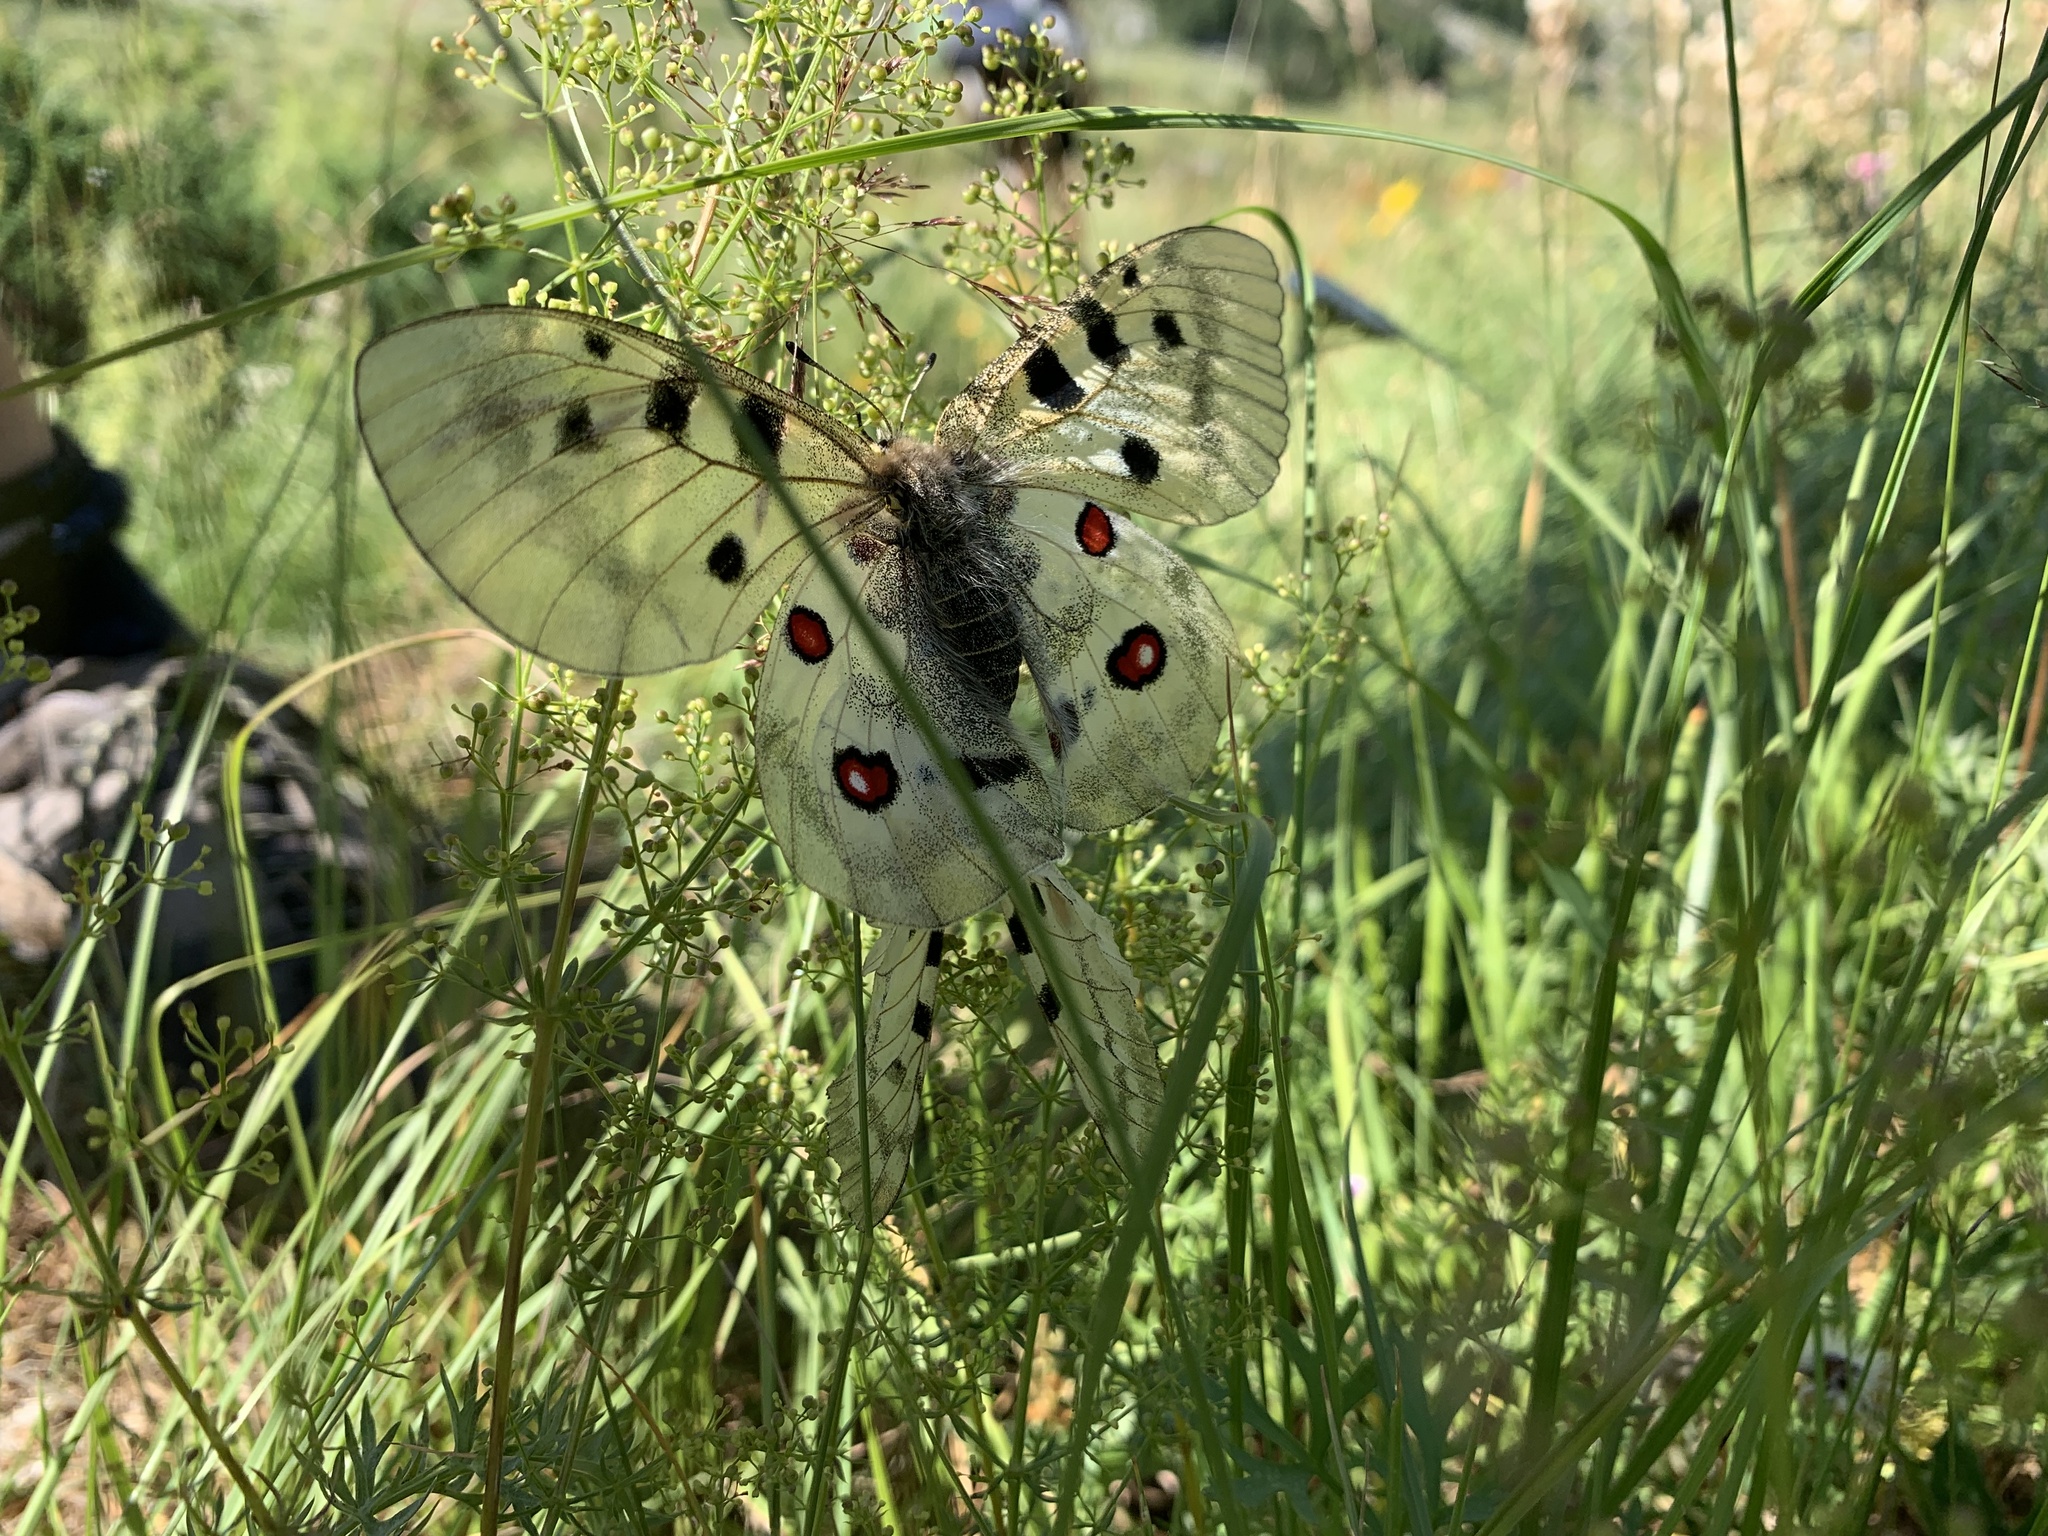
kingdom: Animalia
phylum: Arthropoda
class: Insecta
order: Lepidoptera
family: Papilionidae
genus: Parnassius
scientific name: Parnassius apollo
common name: Apollo
